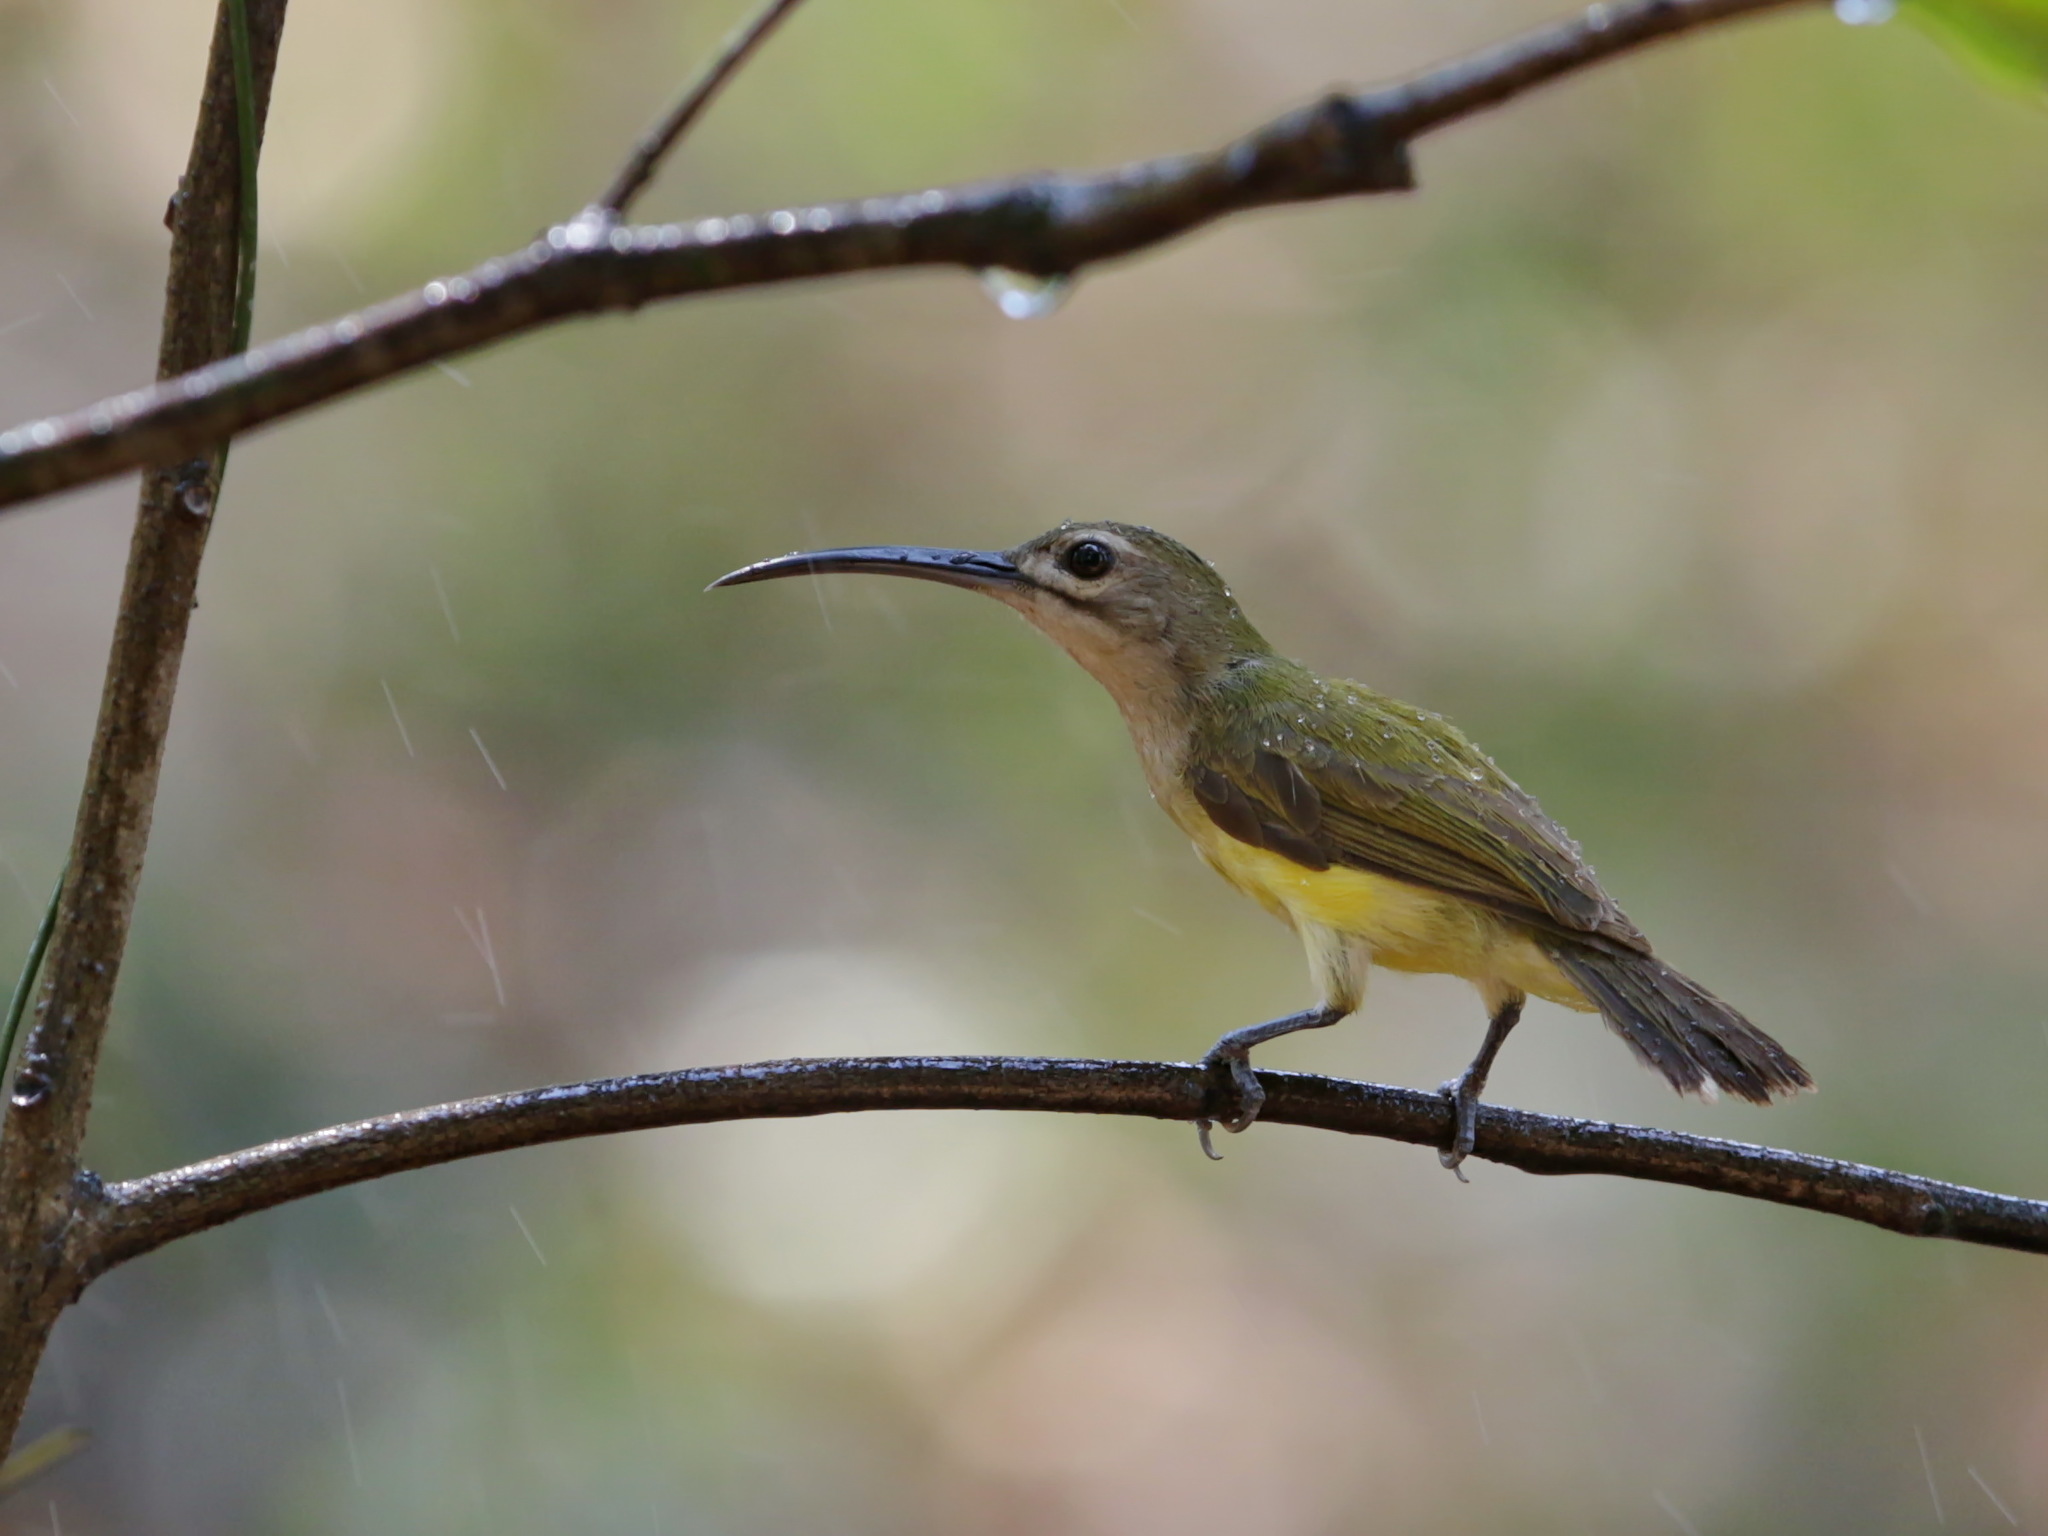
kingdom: Animalia
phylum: Chordata
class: Aves
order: Passeriformes
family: Nectariniidae
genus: Arachnothera
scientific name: Arachnothera longirostra
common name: Little spiderhunter
